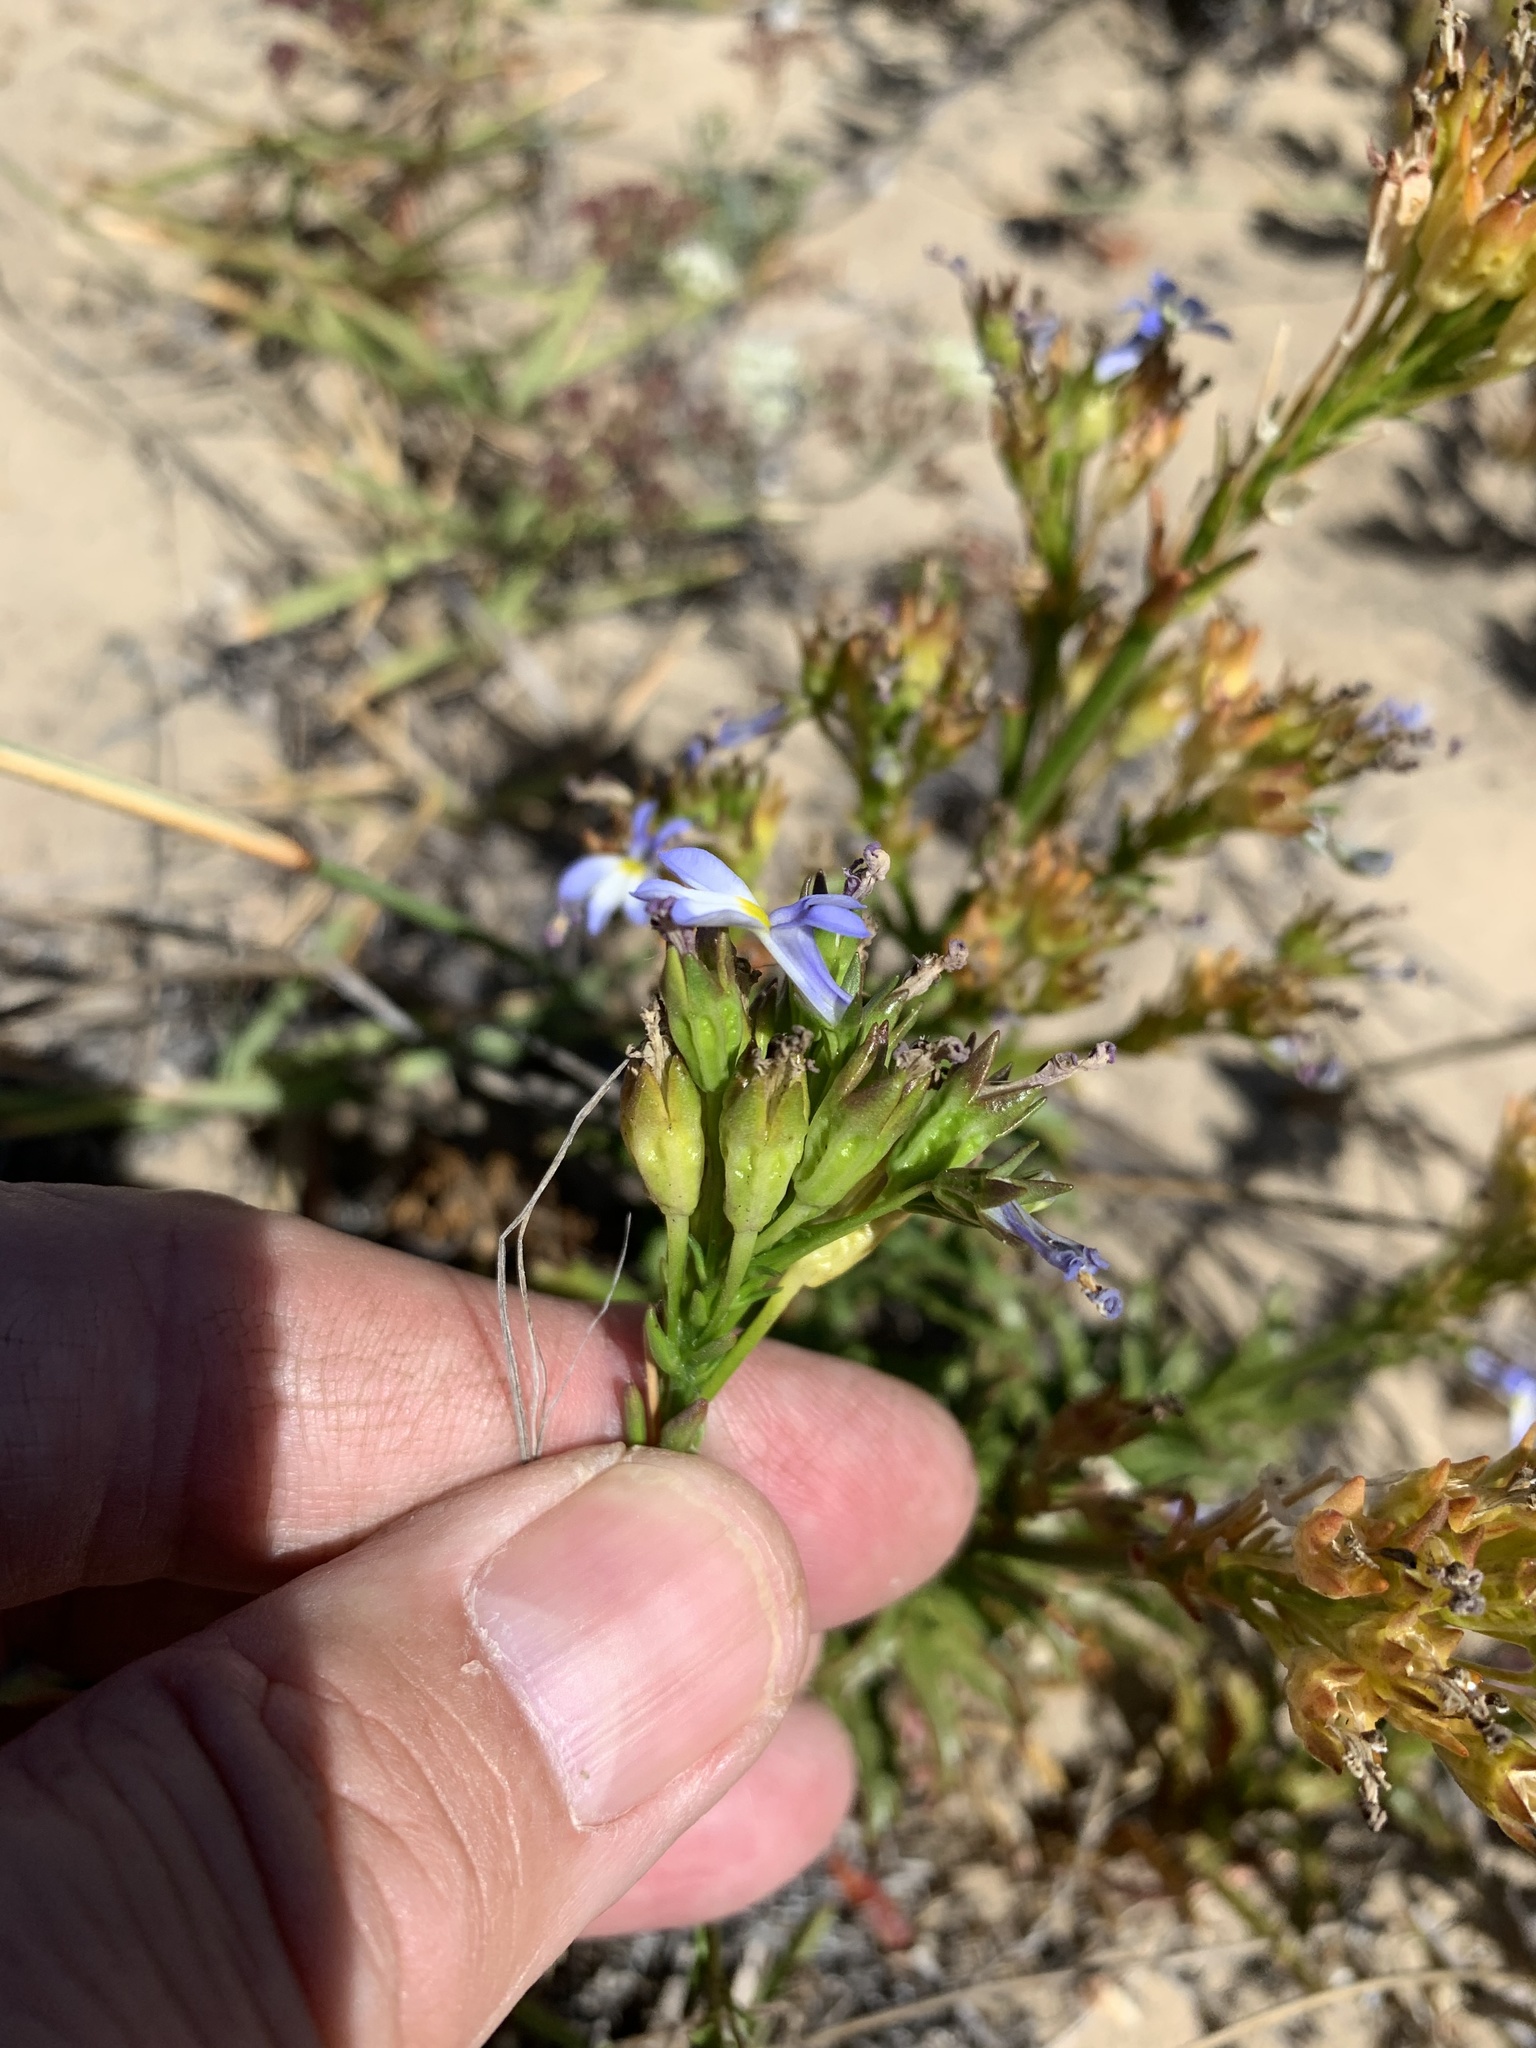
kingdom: Plantae
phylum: Tracheophyta
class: Magnoliopsida
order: Asterales
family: Campanulaceae
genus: Lobelia
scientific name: Lobelia comosa
